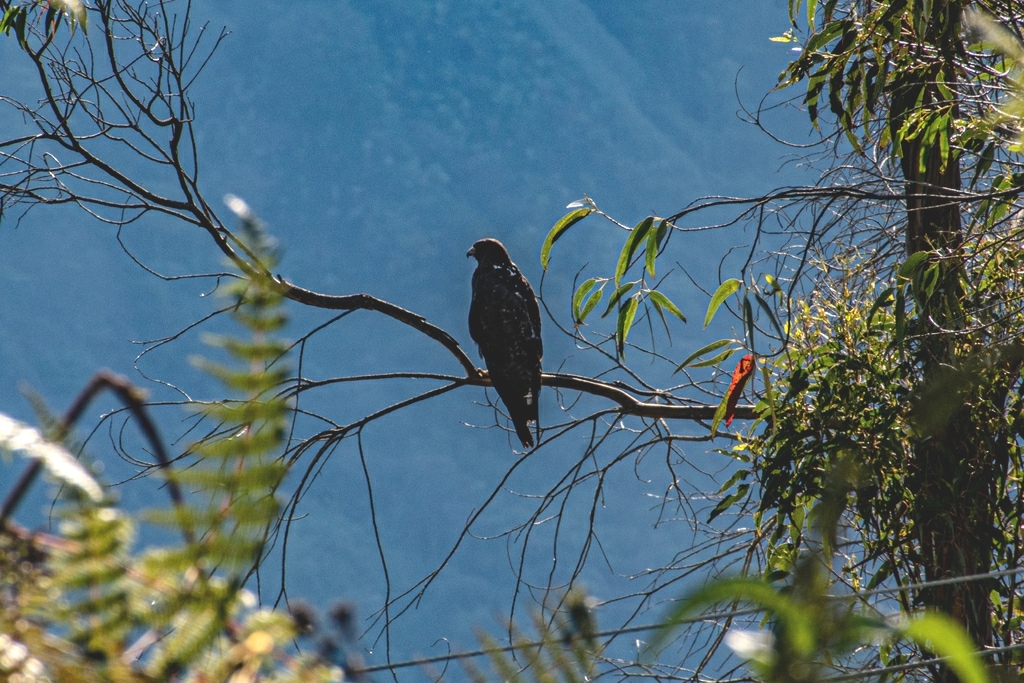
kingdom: Animalia
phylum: Chordata
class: Aves
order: Accipitriformes
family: Accipitridae
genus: Buteo
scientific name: Buteo albicaudatus
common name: White-tailed hawk
